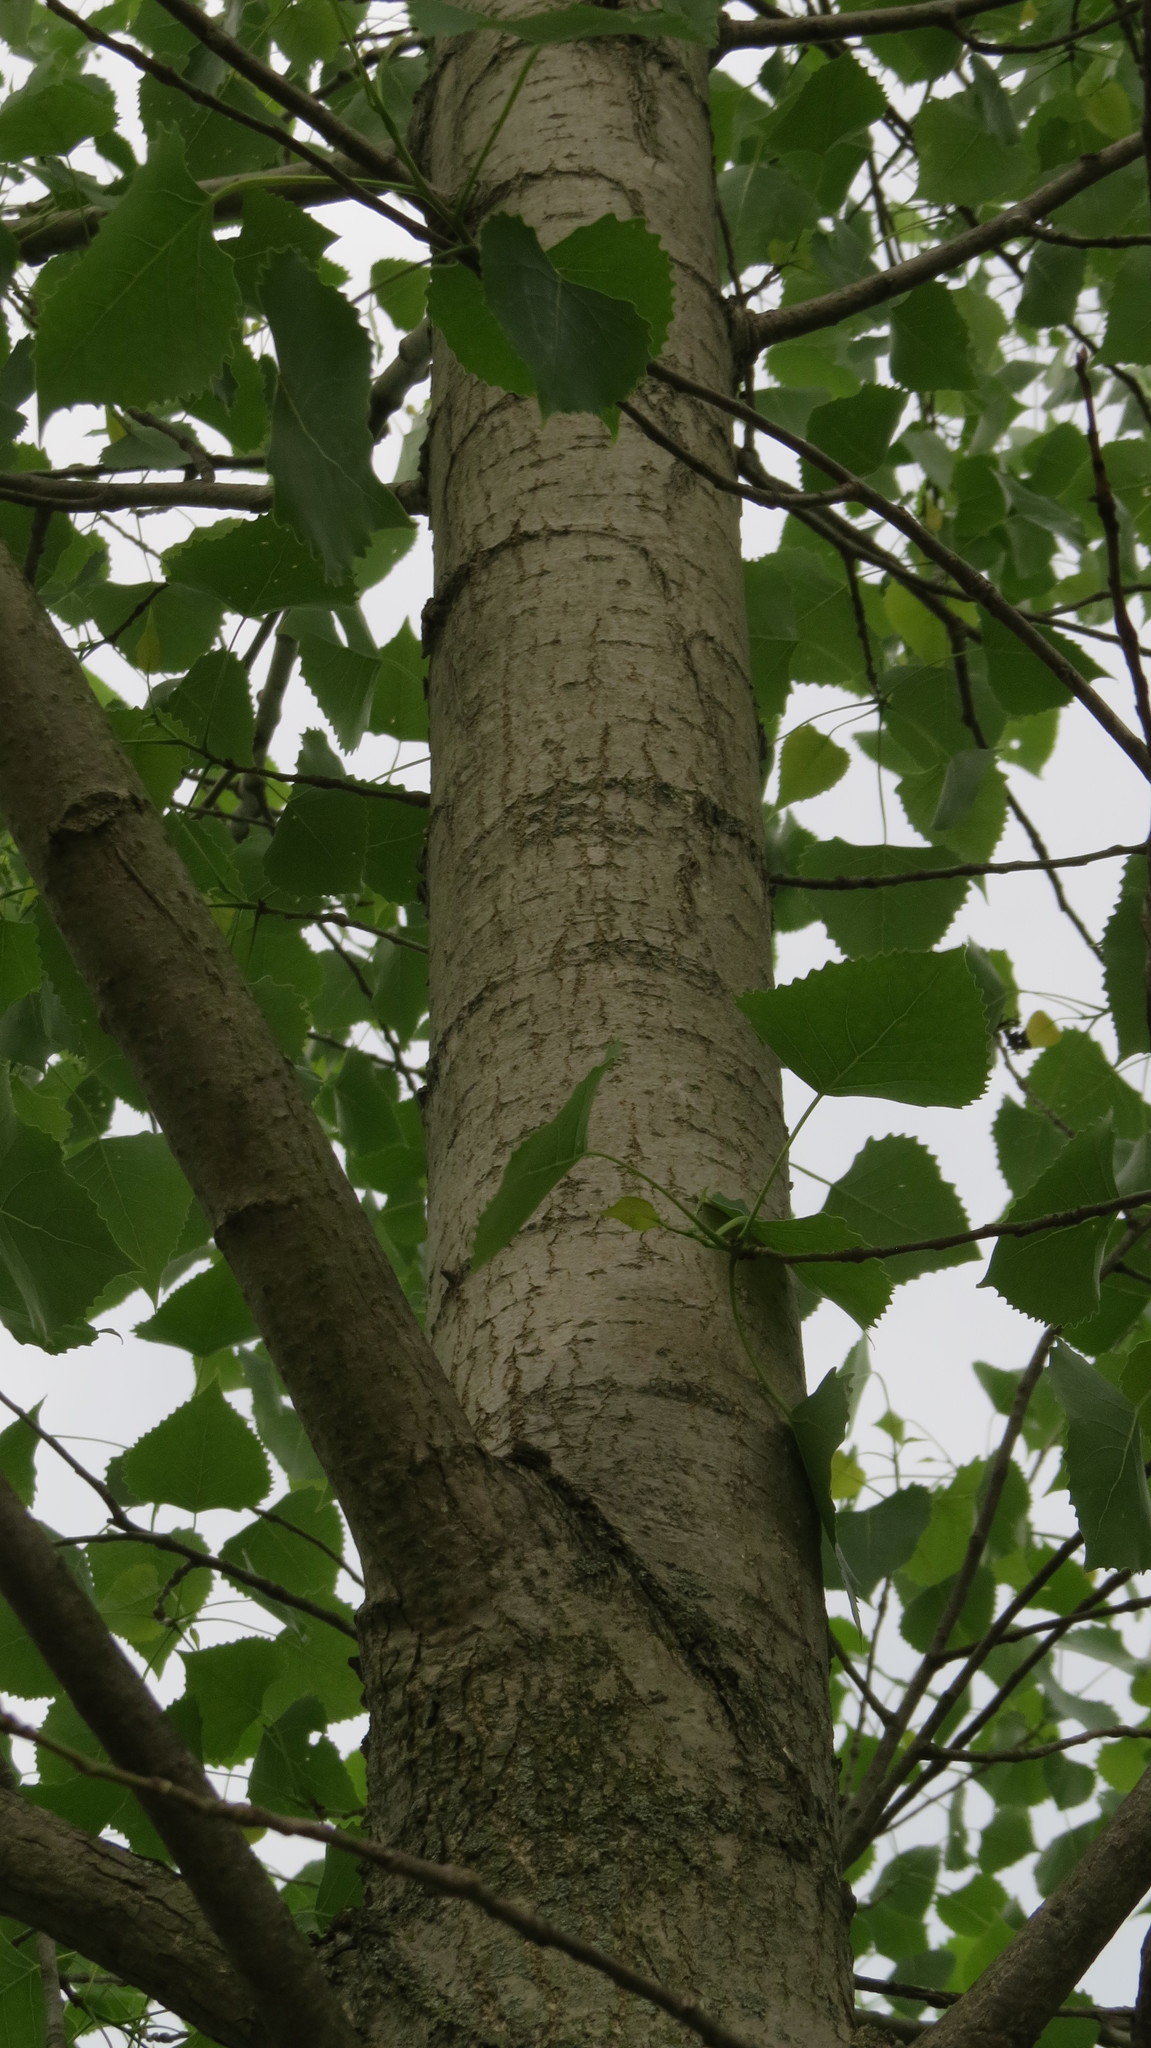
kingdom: Plantae
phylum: Tracheophyta
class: Magnoliopsida
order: Malpighiales
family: Salicaceae
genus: Populus
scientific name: Populus deltoides
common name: Eastern cottonwood
